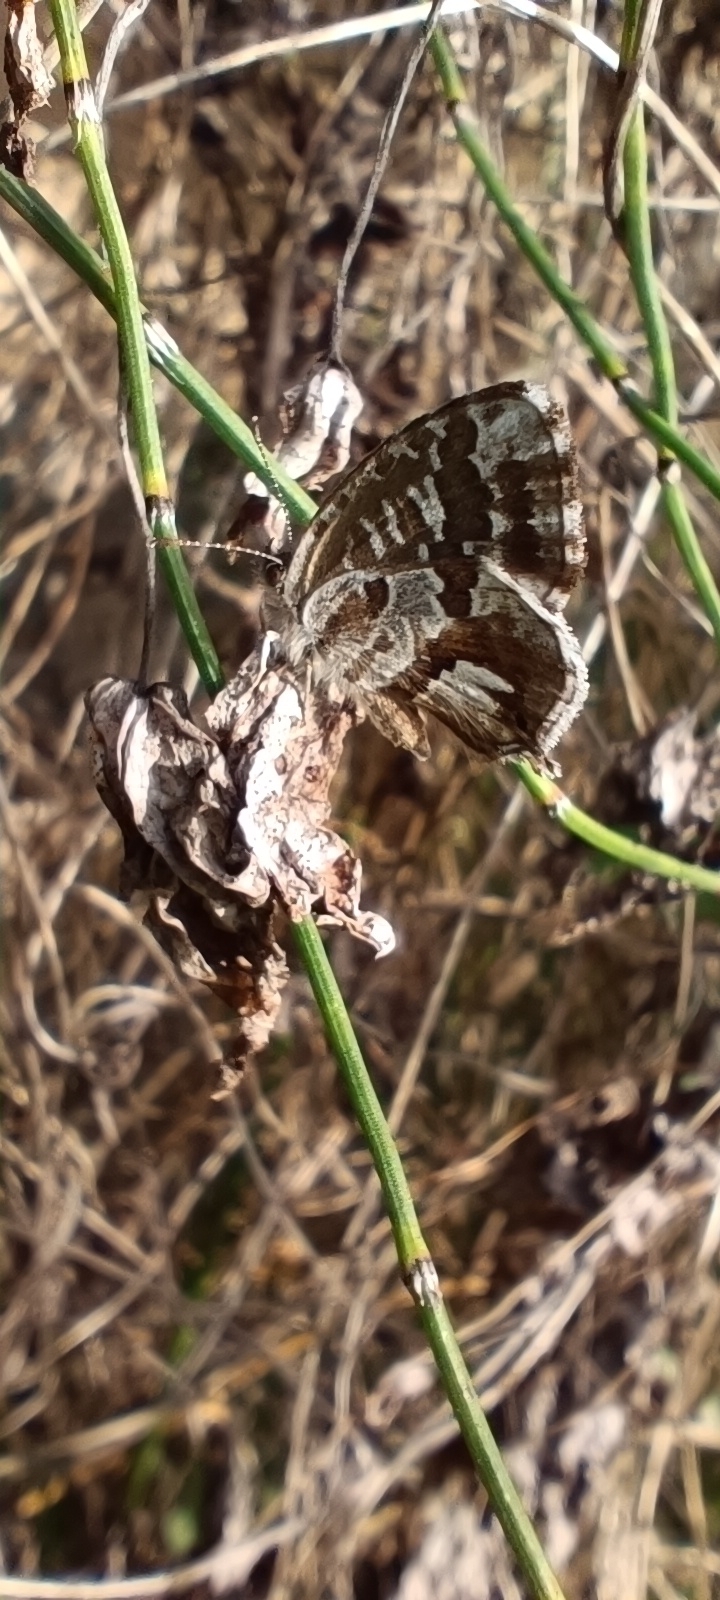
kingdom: Animalia
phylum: Arthropoda
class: Insecta
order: Lepidoptera
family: Lycaenidae
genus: Cacyreus
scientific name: Cacyreus marshalli
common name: Geranium bronze
